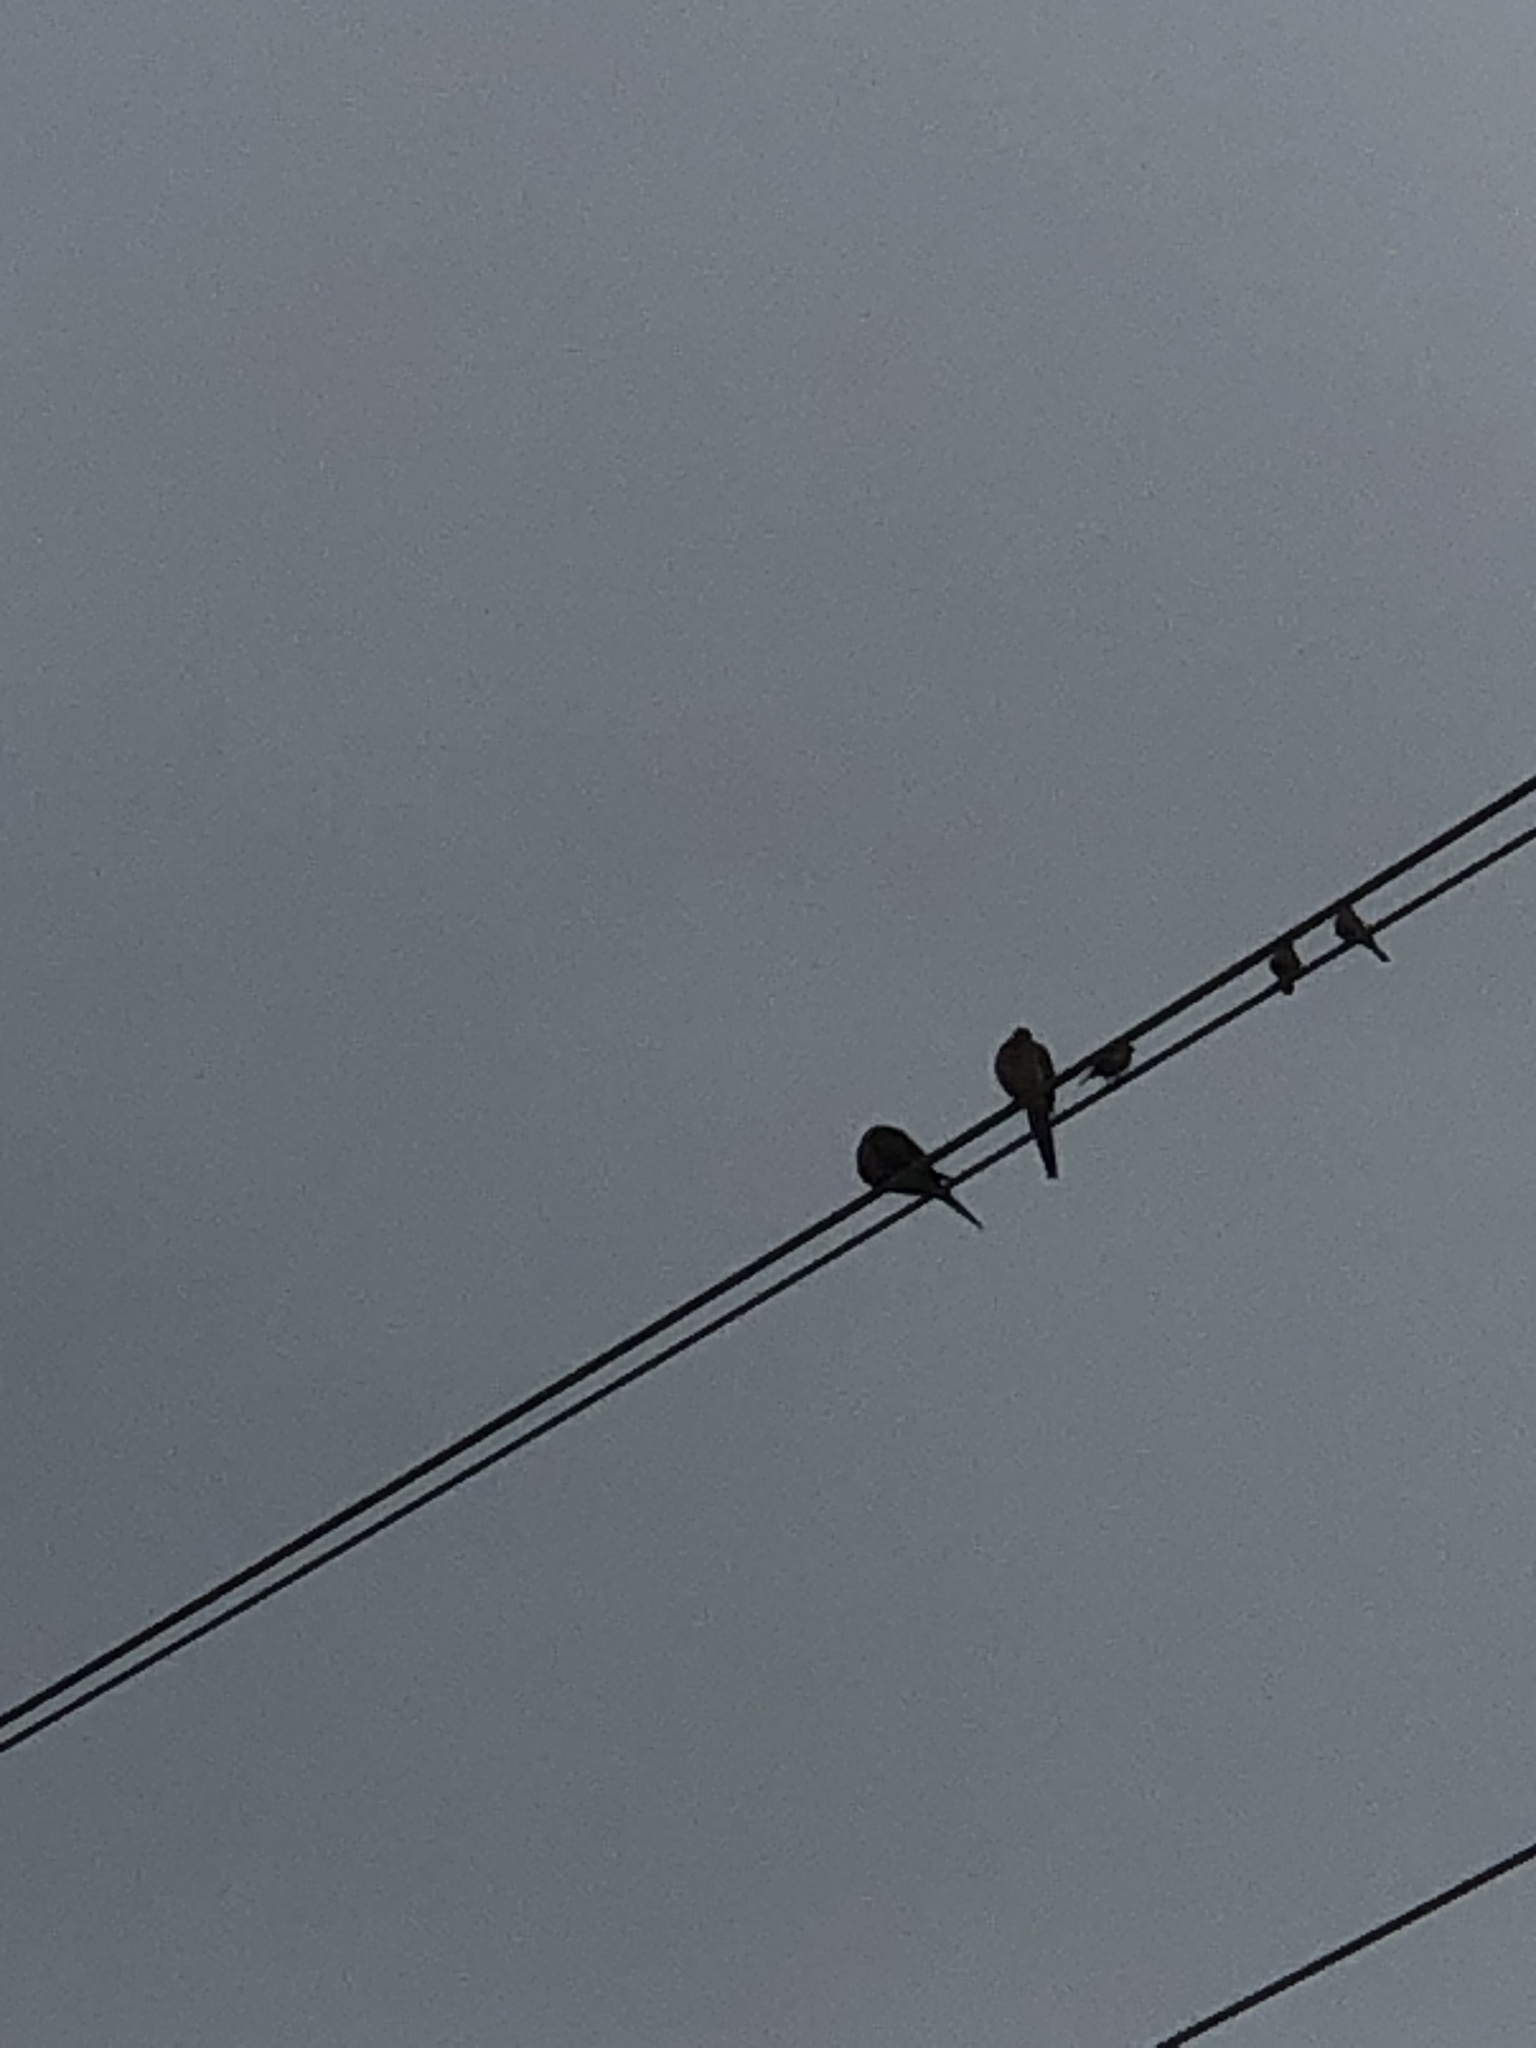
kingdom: Animalia
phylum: Chordata
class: Aves
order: Columbiformes
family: Columbidae
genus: Zenaida
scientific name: Zenaida macroura
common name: Mourning dove
